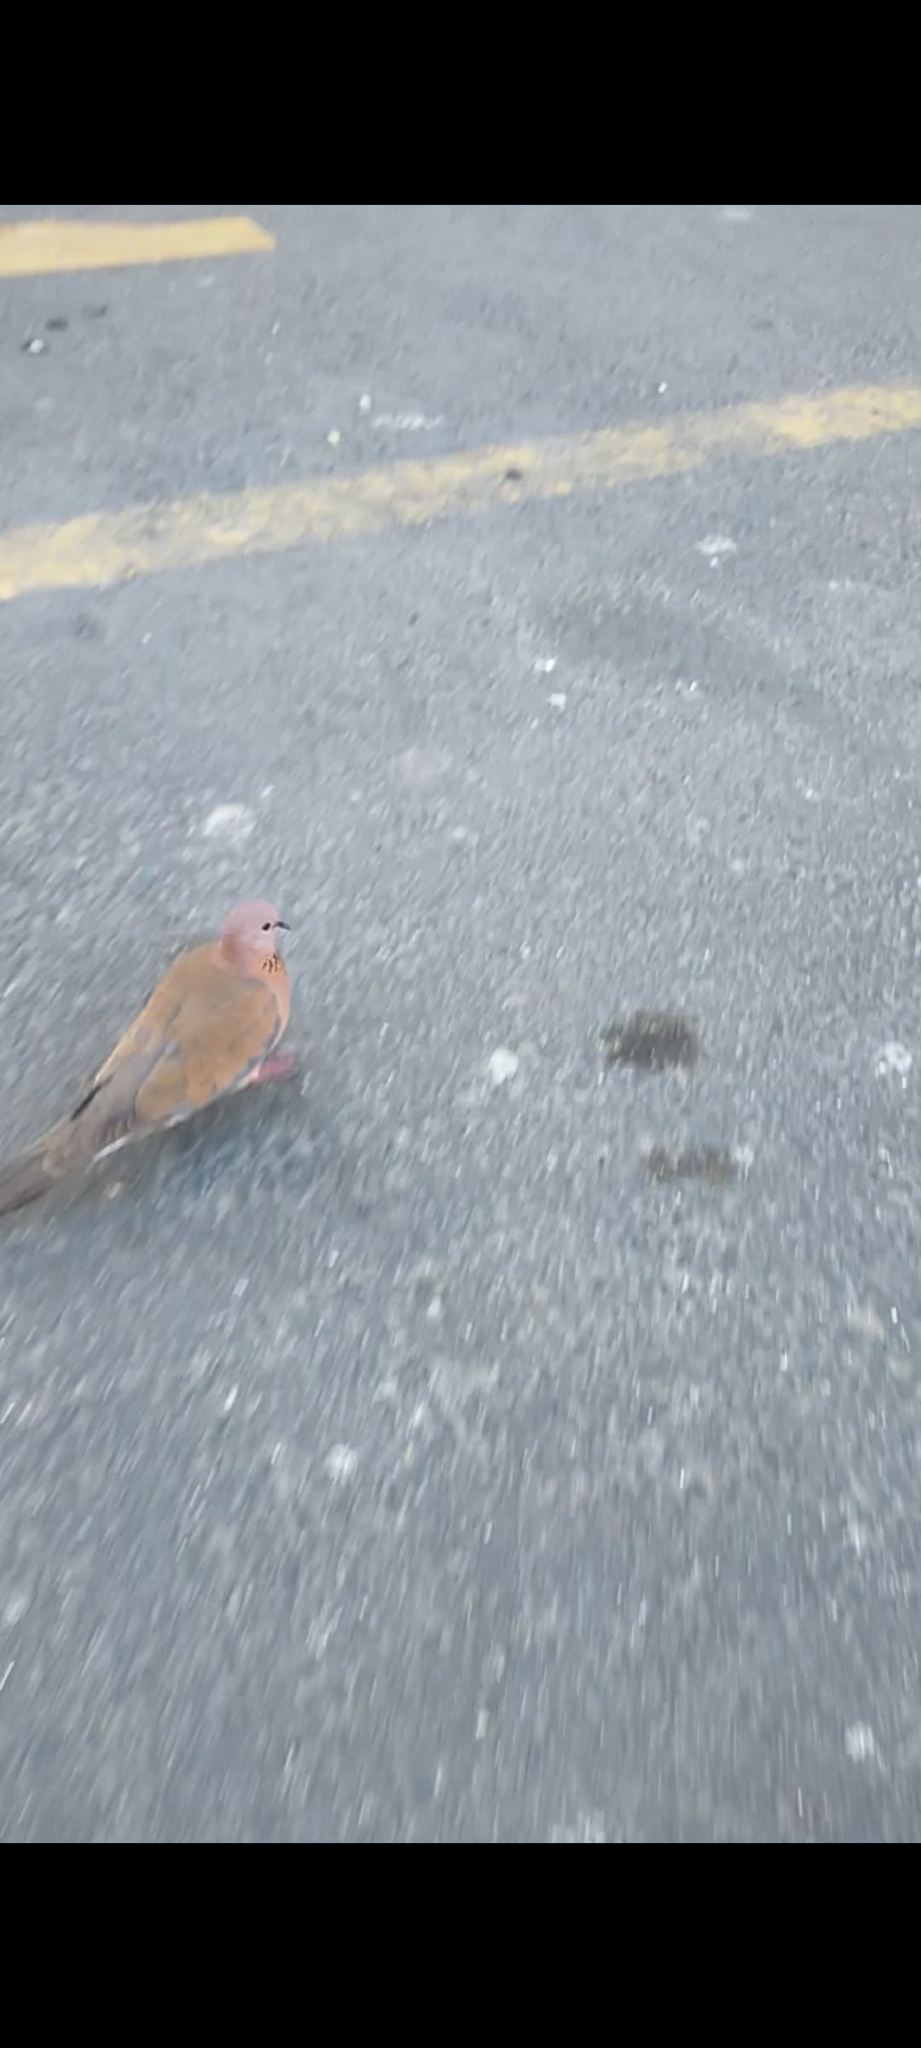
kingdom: Animalia
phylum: Chordata
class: Aves
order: Columbiformes
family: Columbidae
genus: Spilopelia
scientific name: Spilopelia senegalensis
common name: Laughing dove
